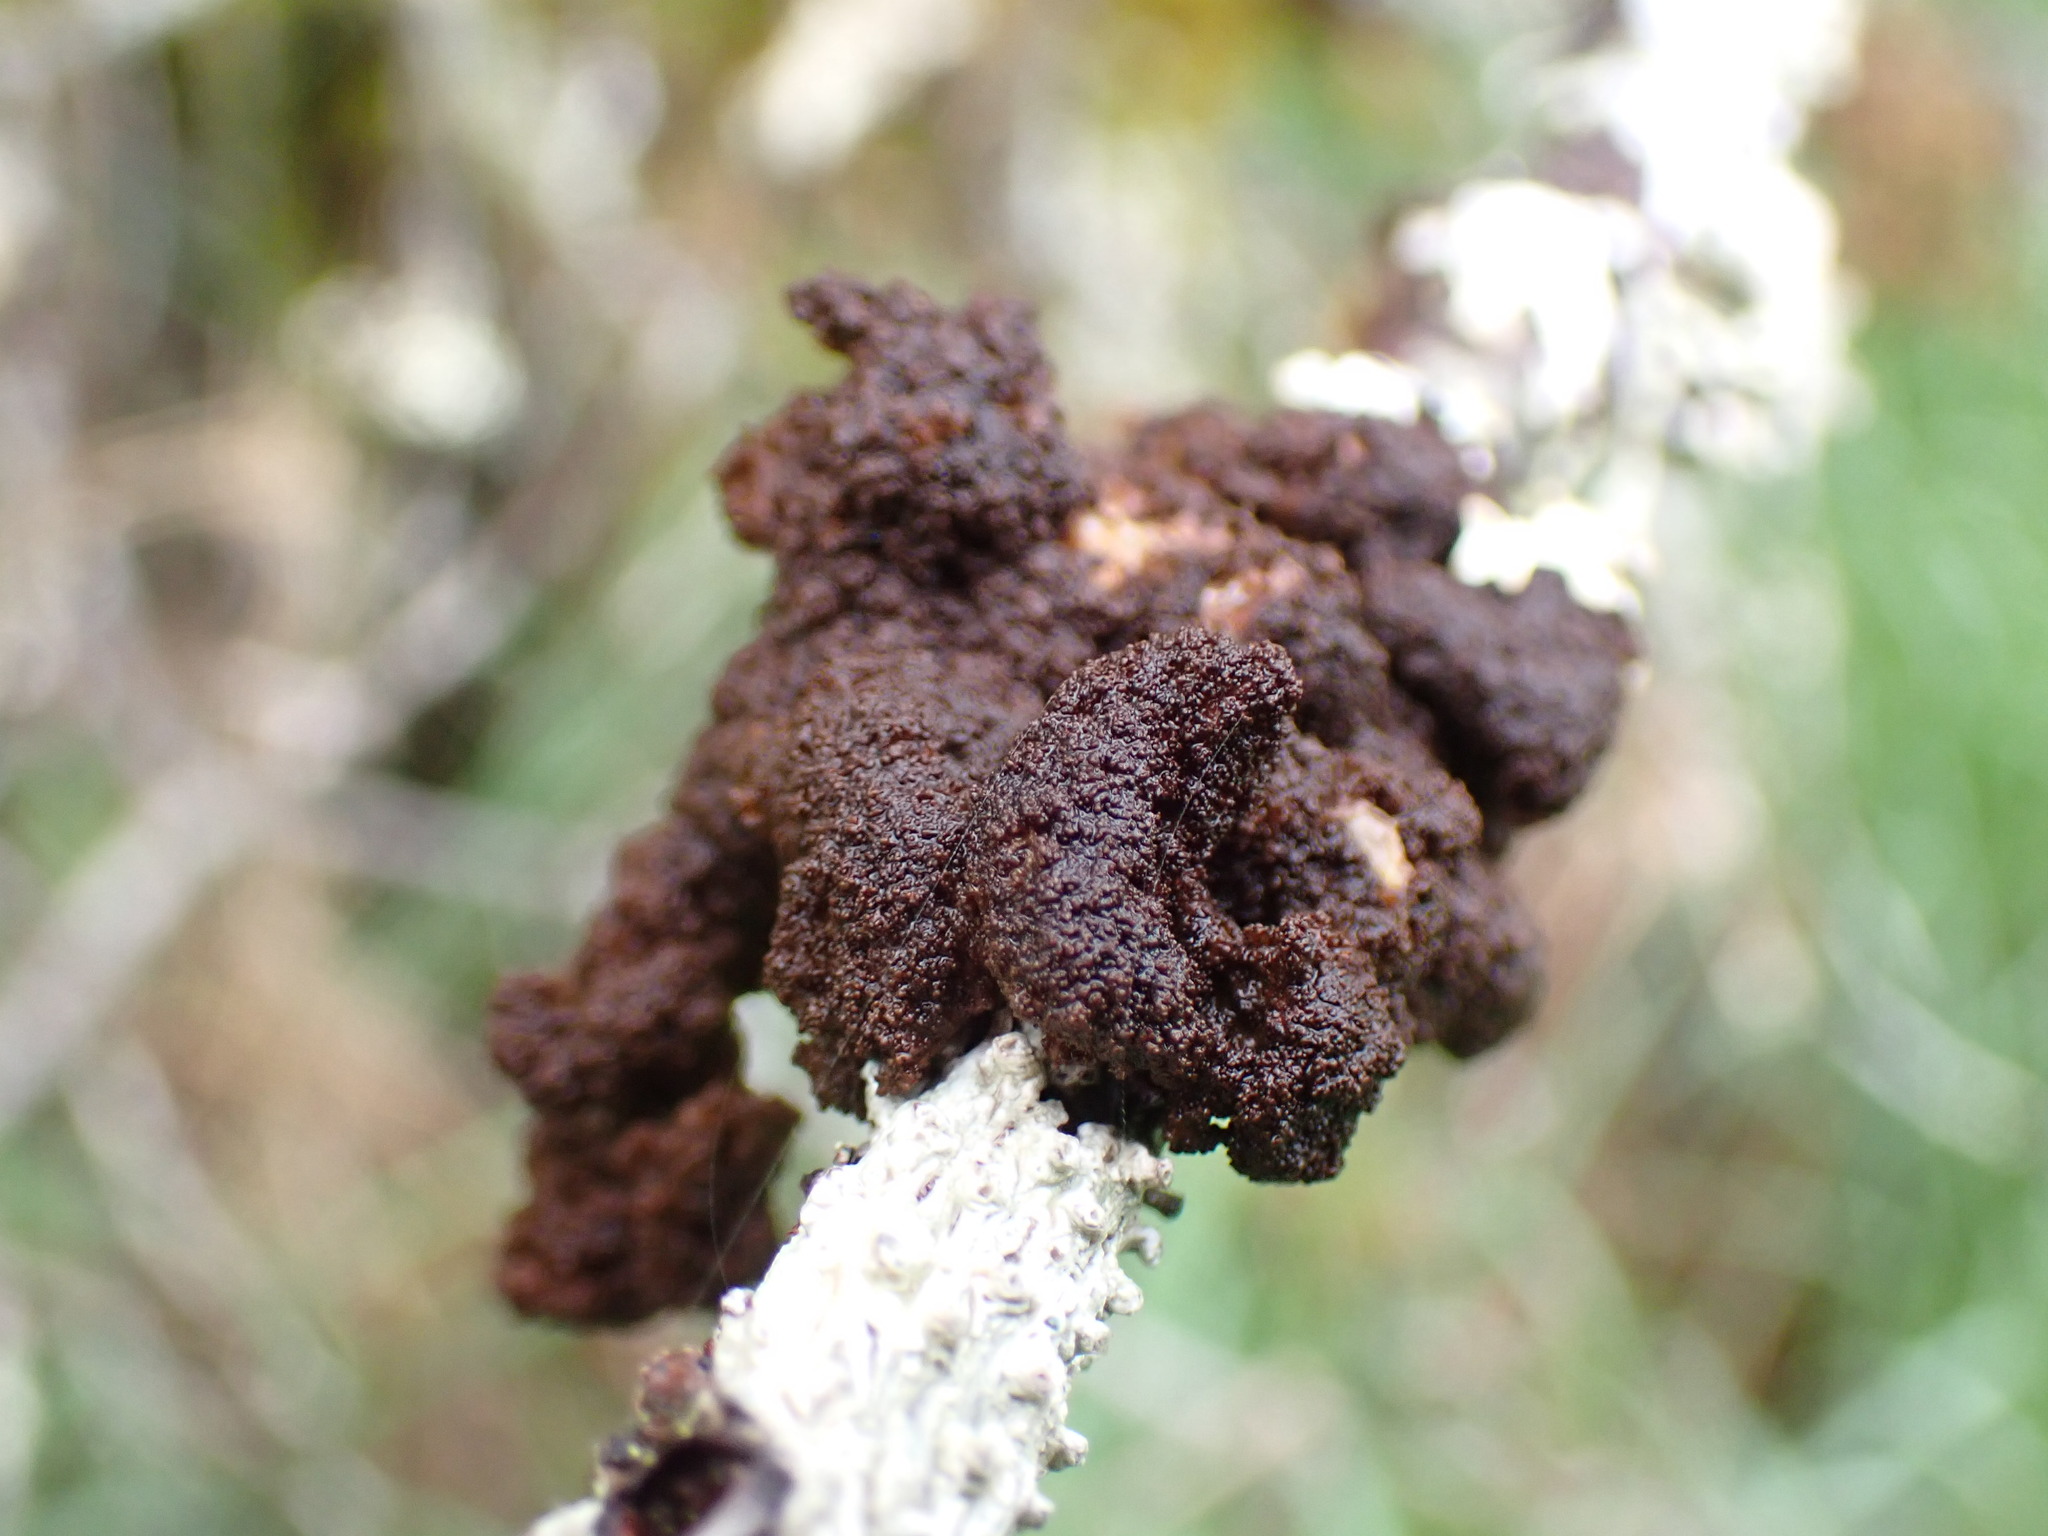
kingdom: Fungi
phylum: Ascomycota
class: Lecanoromycetes
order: Peltigerales
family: Lobariaceae
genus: Sticta
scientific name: Sticta fuliginosa
